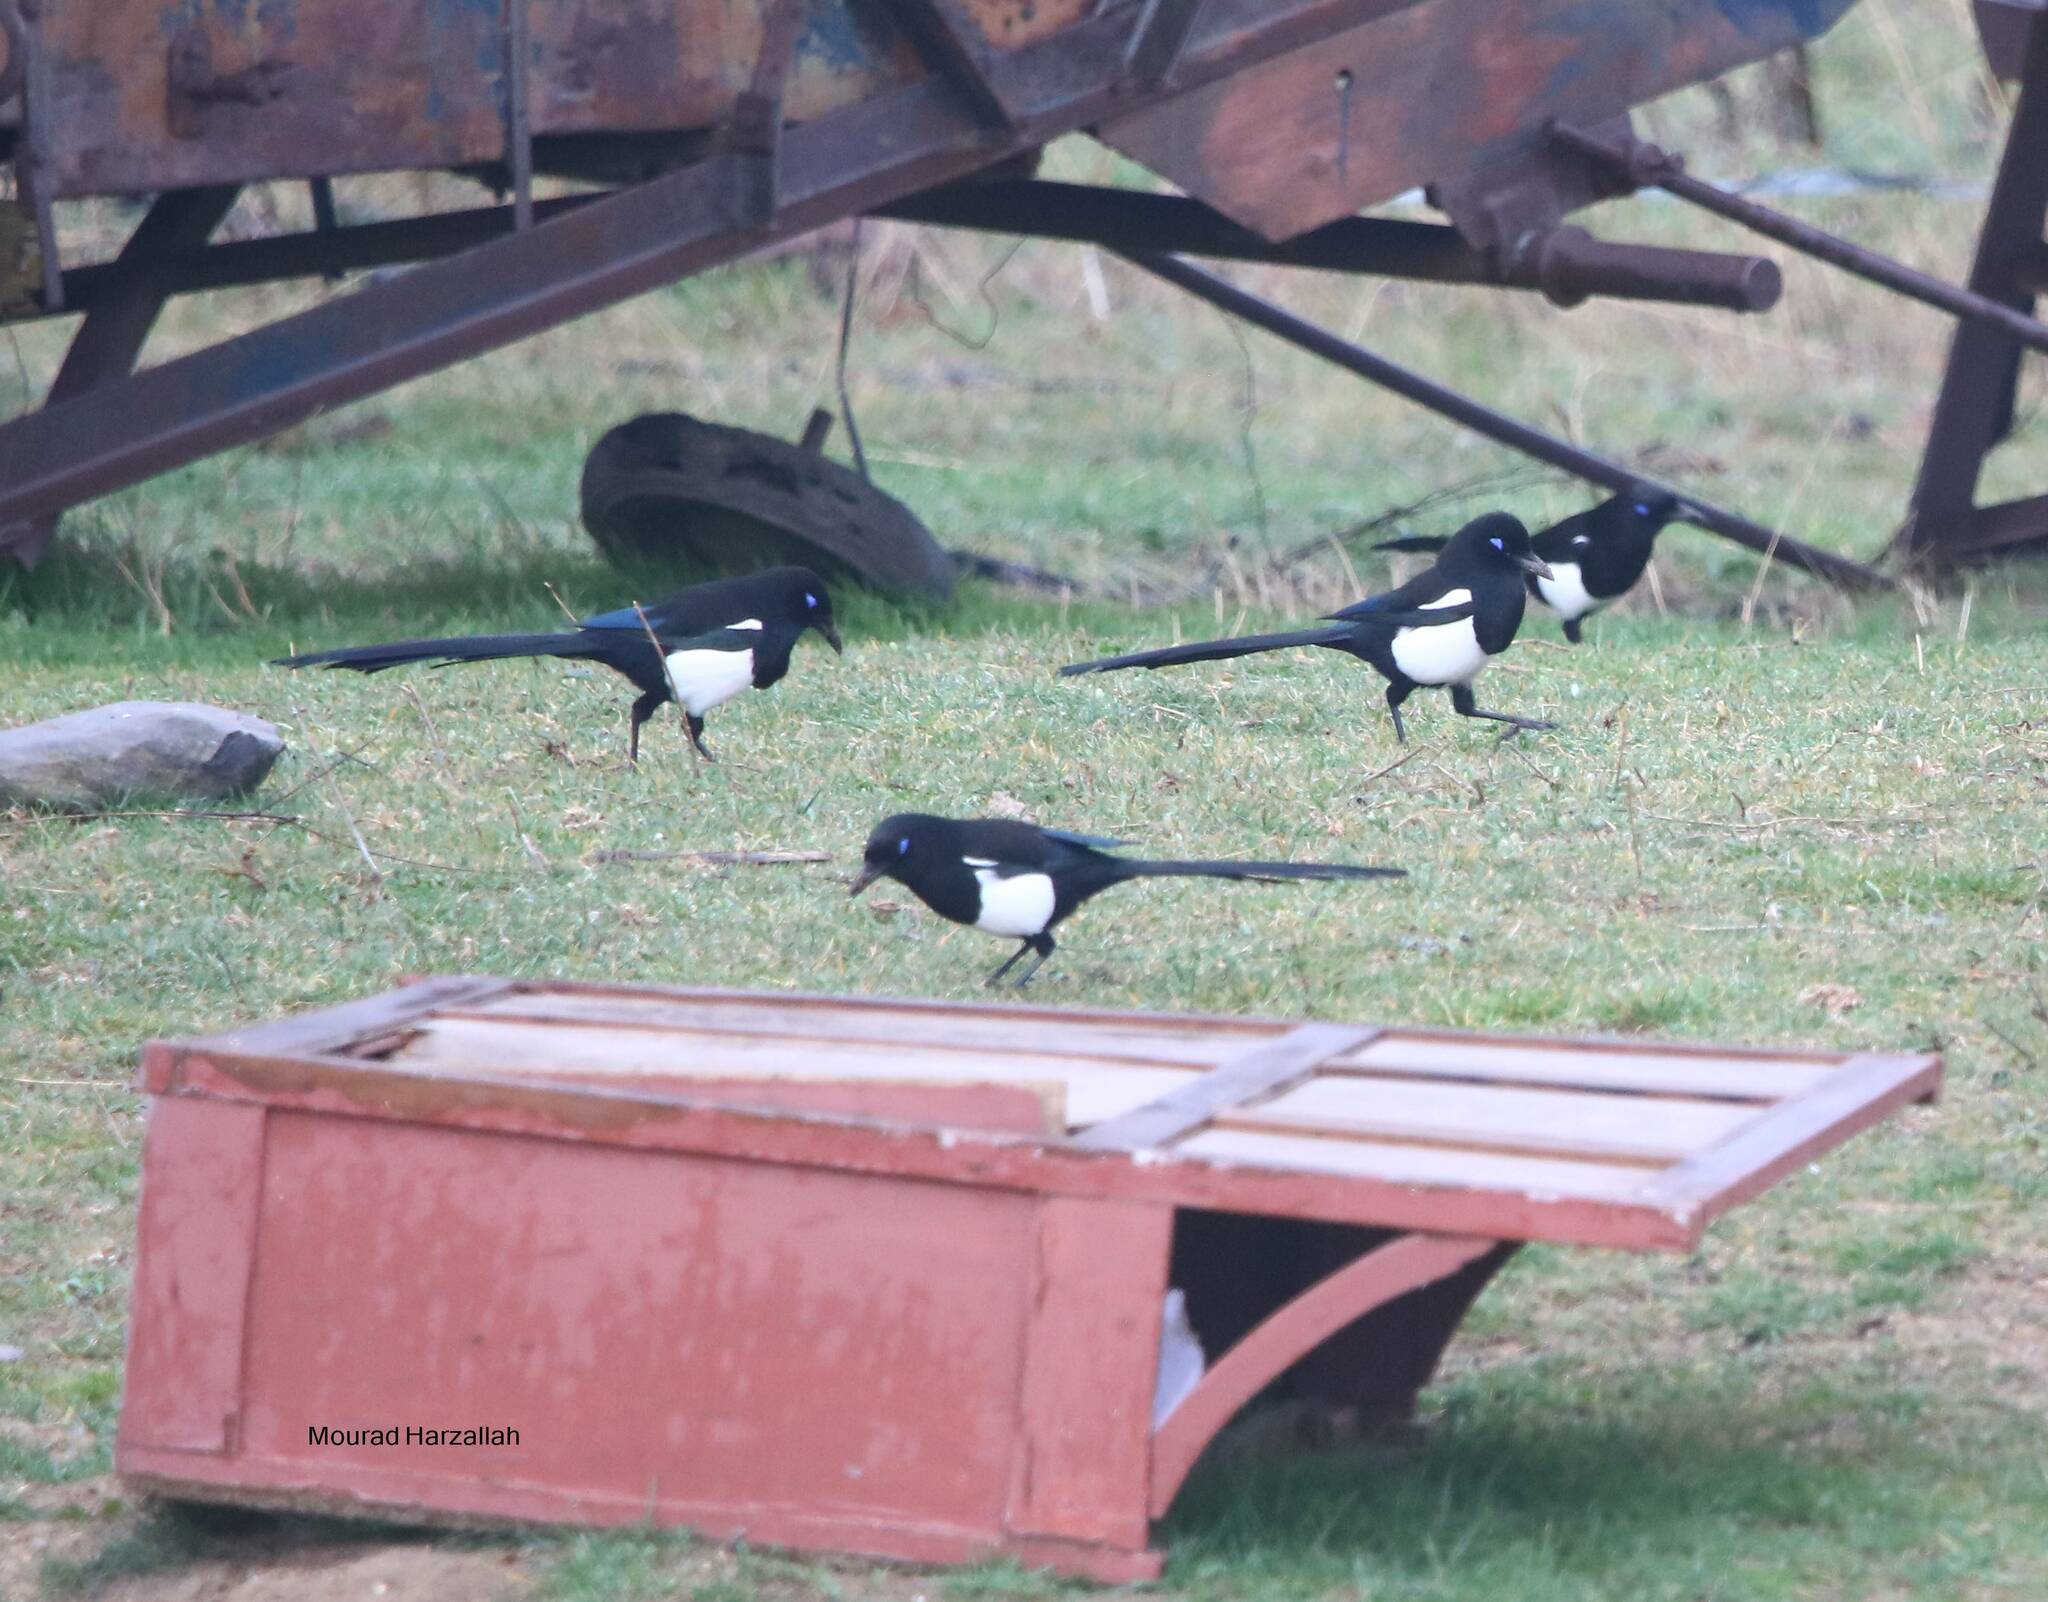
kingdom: Animalia
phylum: Chordata
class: Aves
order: Passeriformes
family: Corvidae
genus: Pica
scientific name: Pica mauritanica
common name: Maghreb magpie
